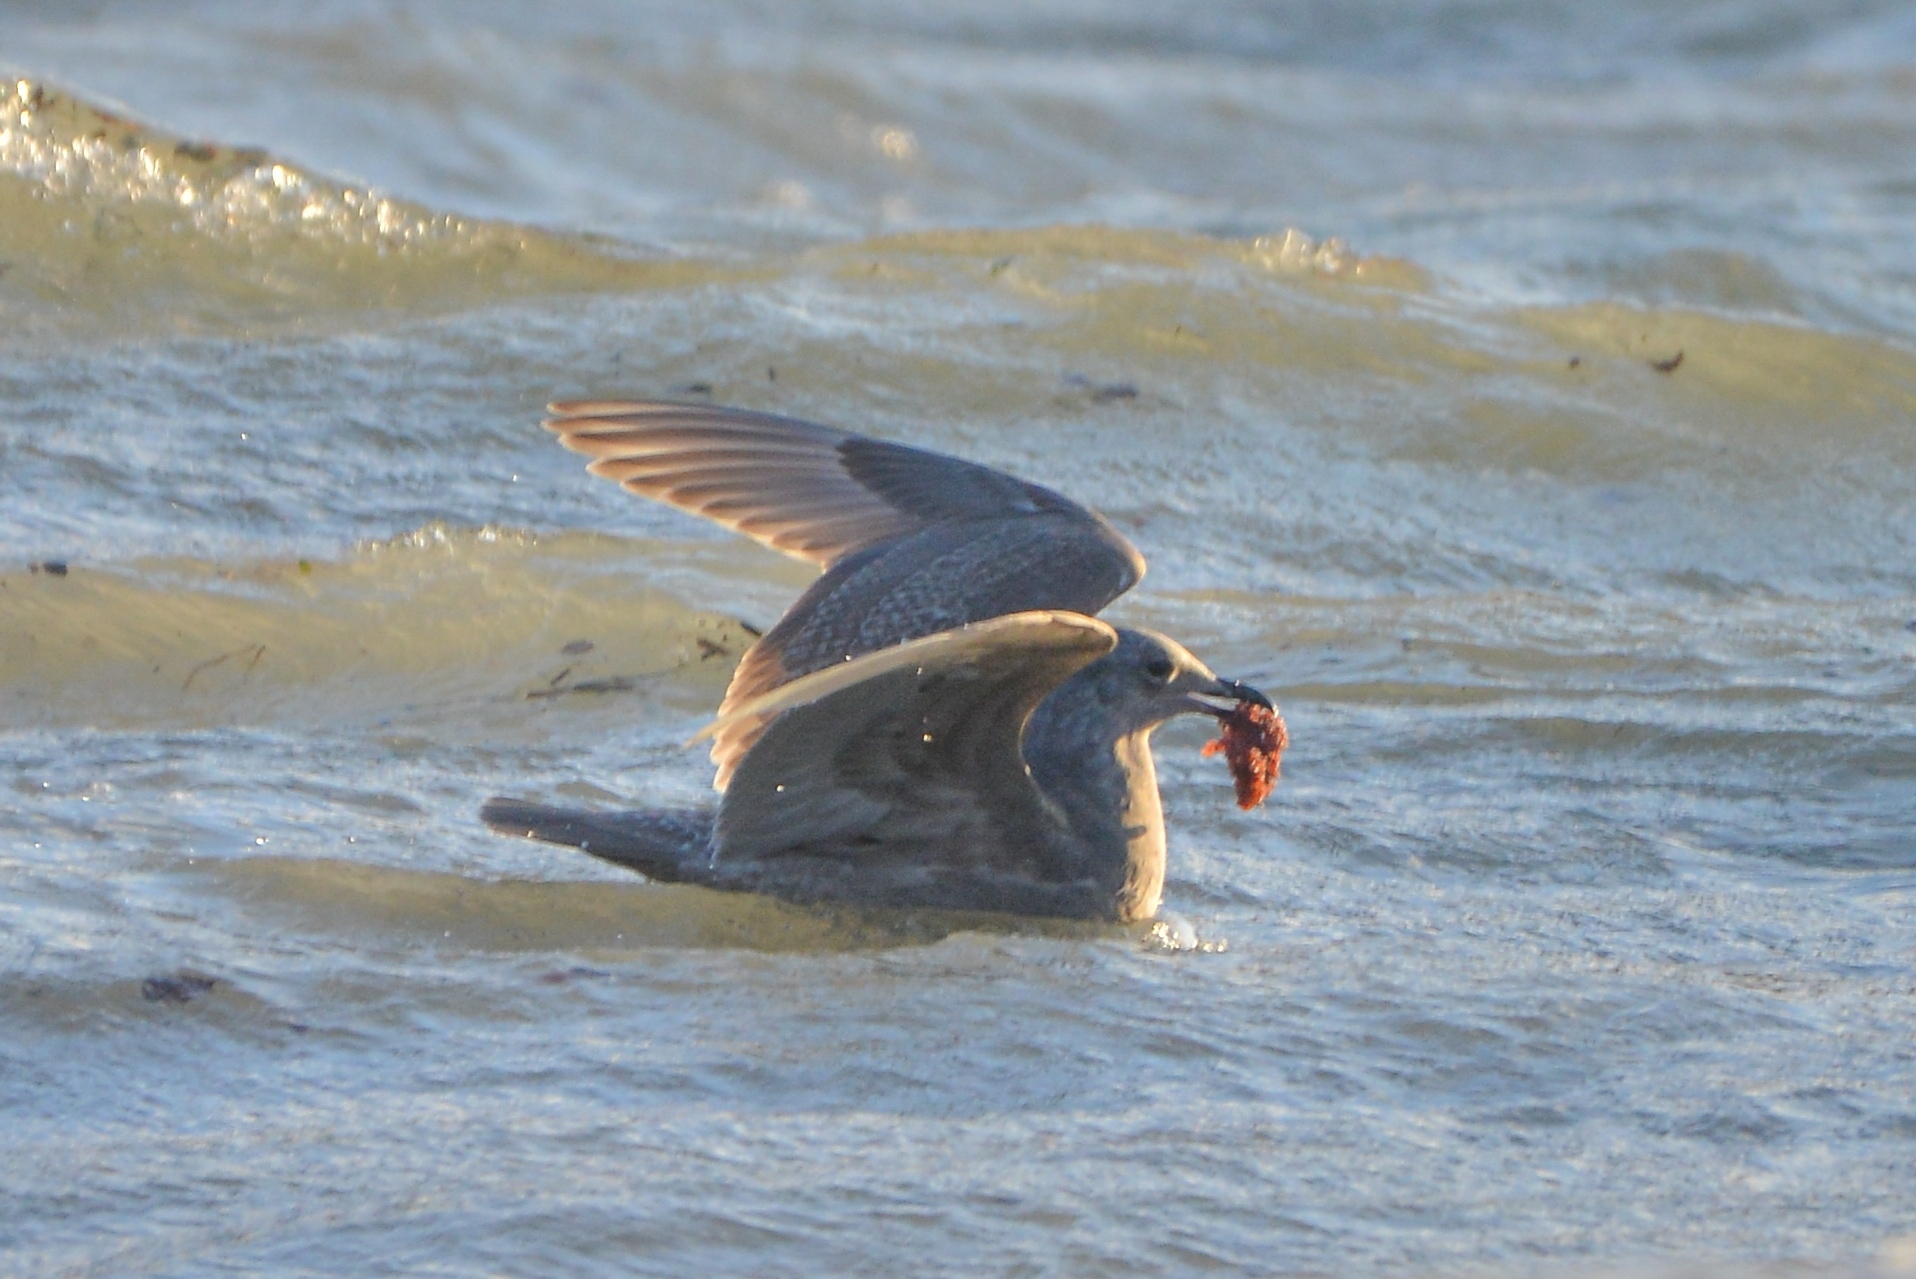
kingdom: Animalia
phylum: Chordata
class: Aves
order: Charadriiformes
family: Laridae
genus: Larus
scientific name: Larus glaucescens
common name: Glaucous-winged gull
